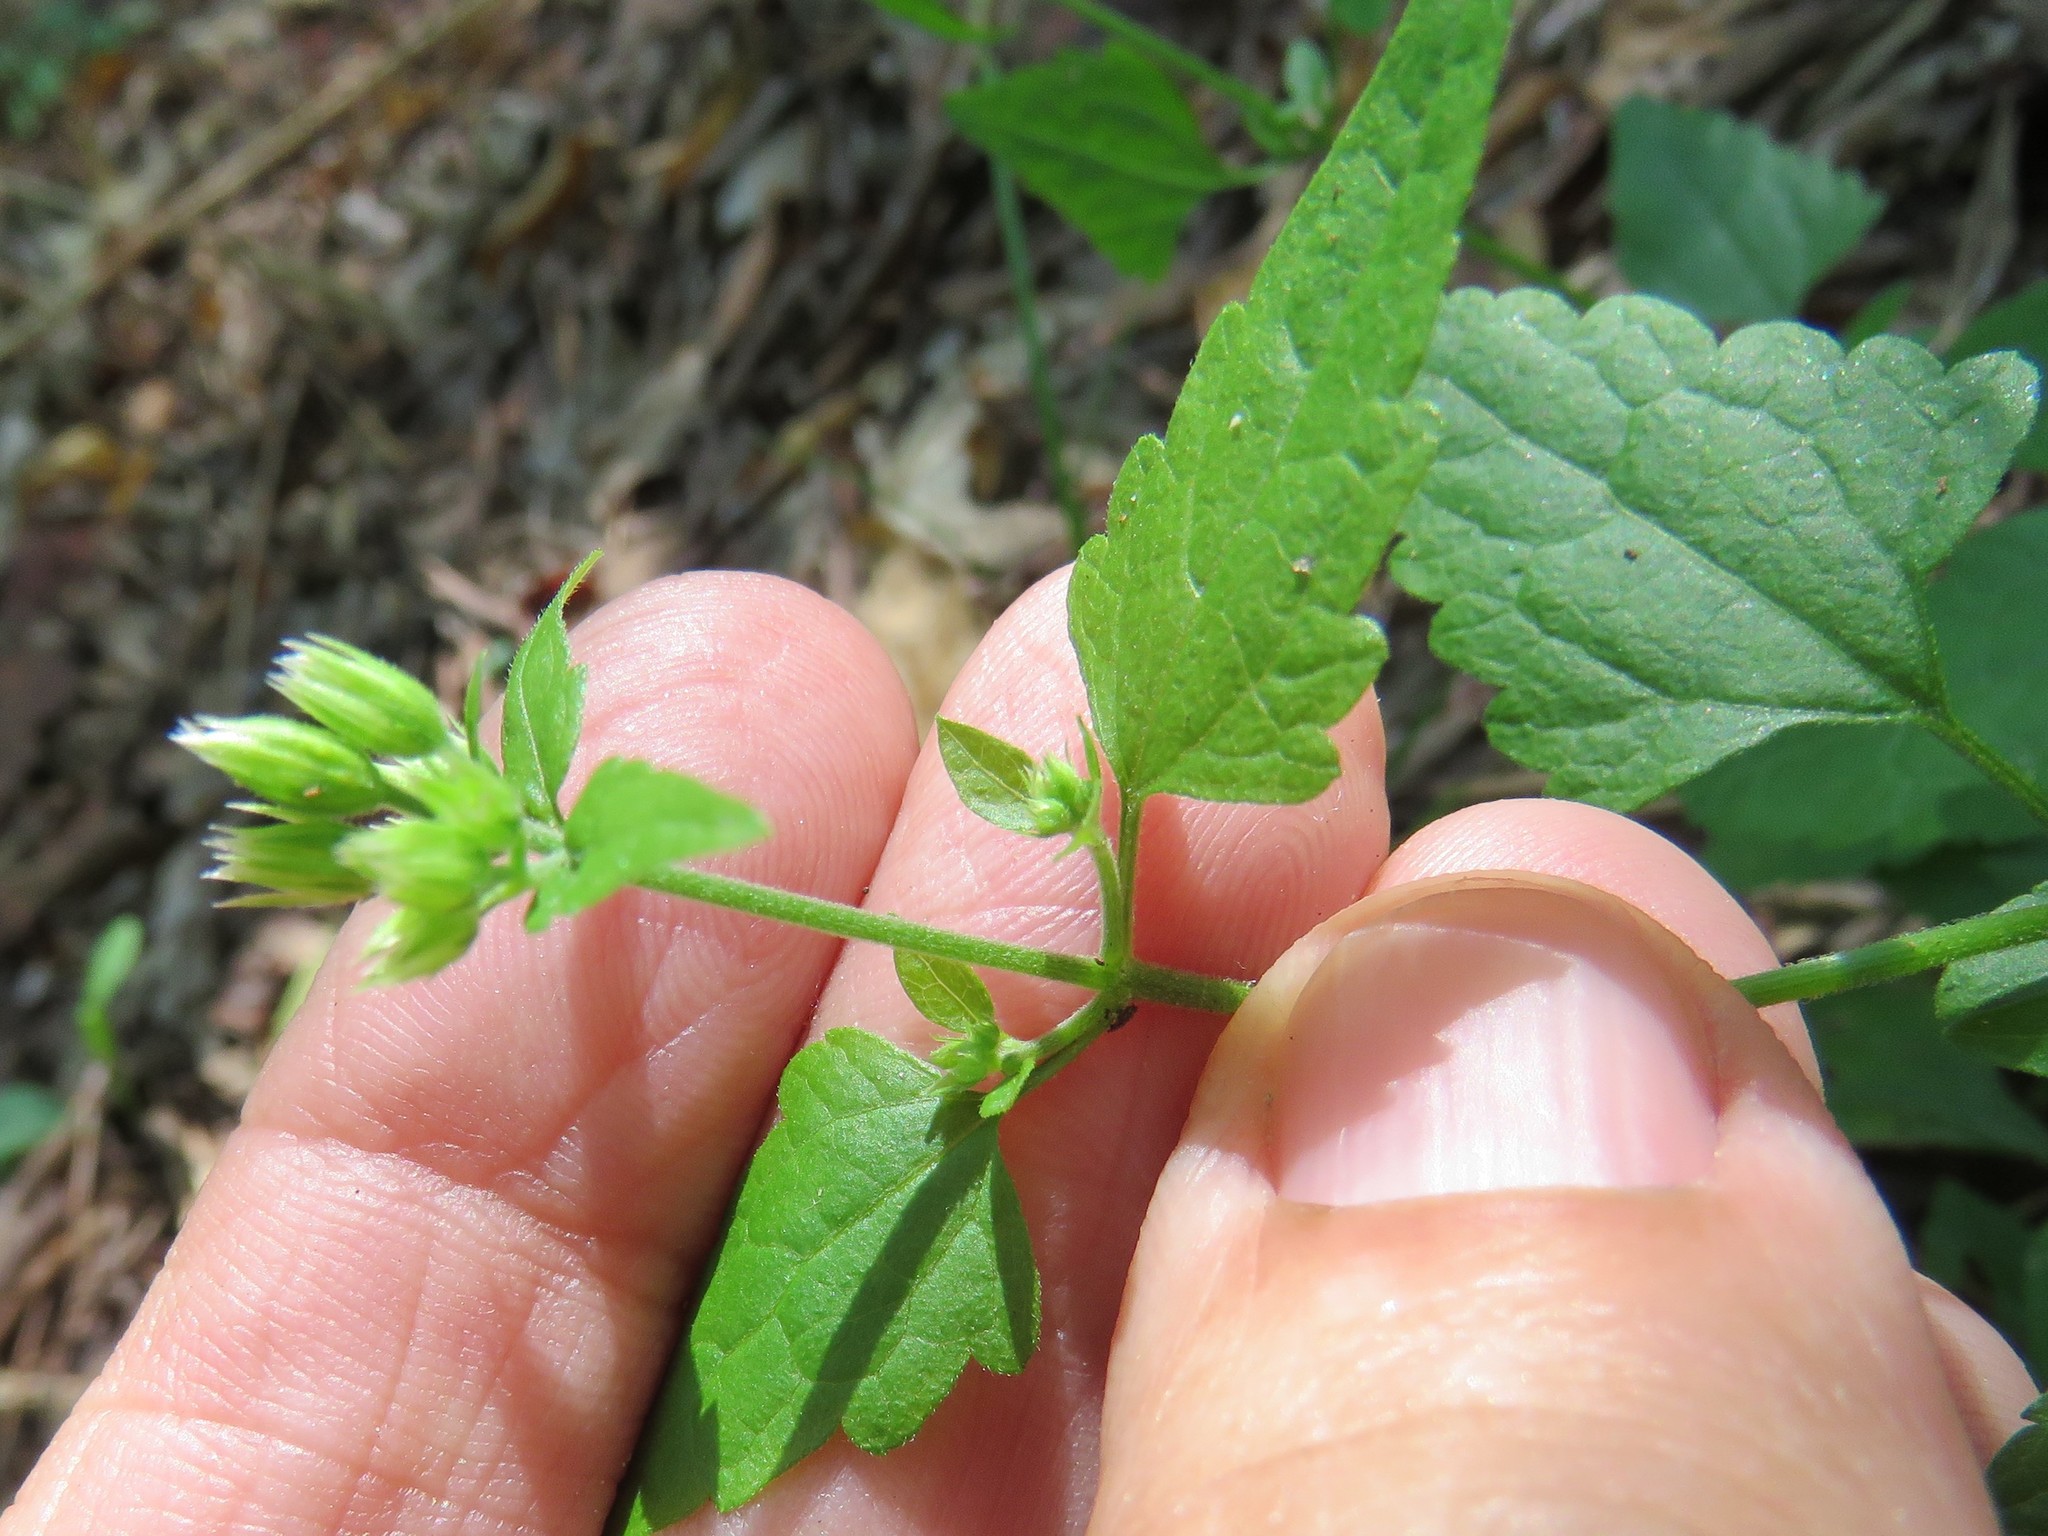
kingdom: Plantae
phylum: Tracheophyta
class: Magnoliopsida
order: Asterales
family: Asteraceae
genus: Fleischmannia
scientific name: Fleischmannia incarnata
